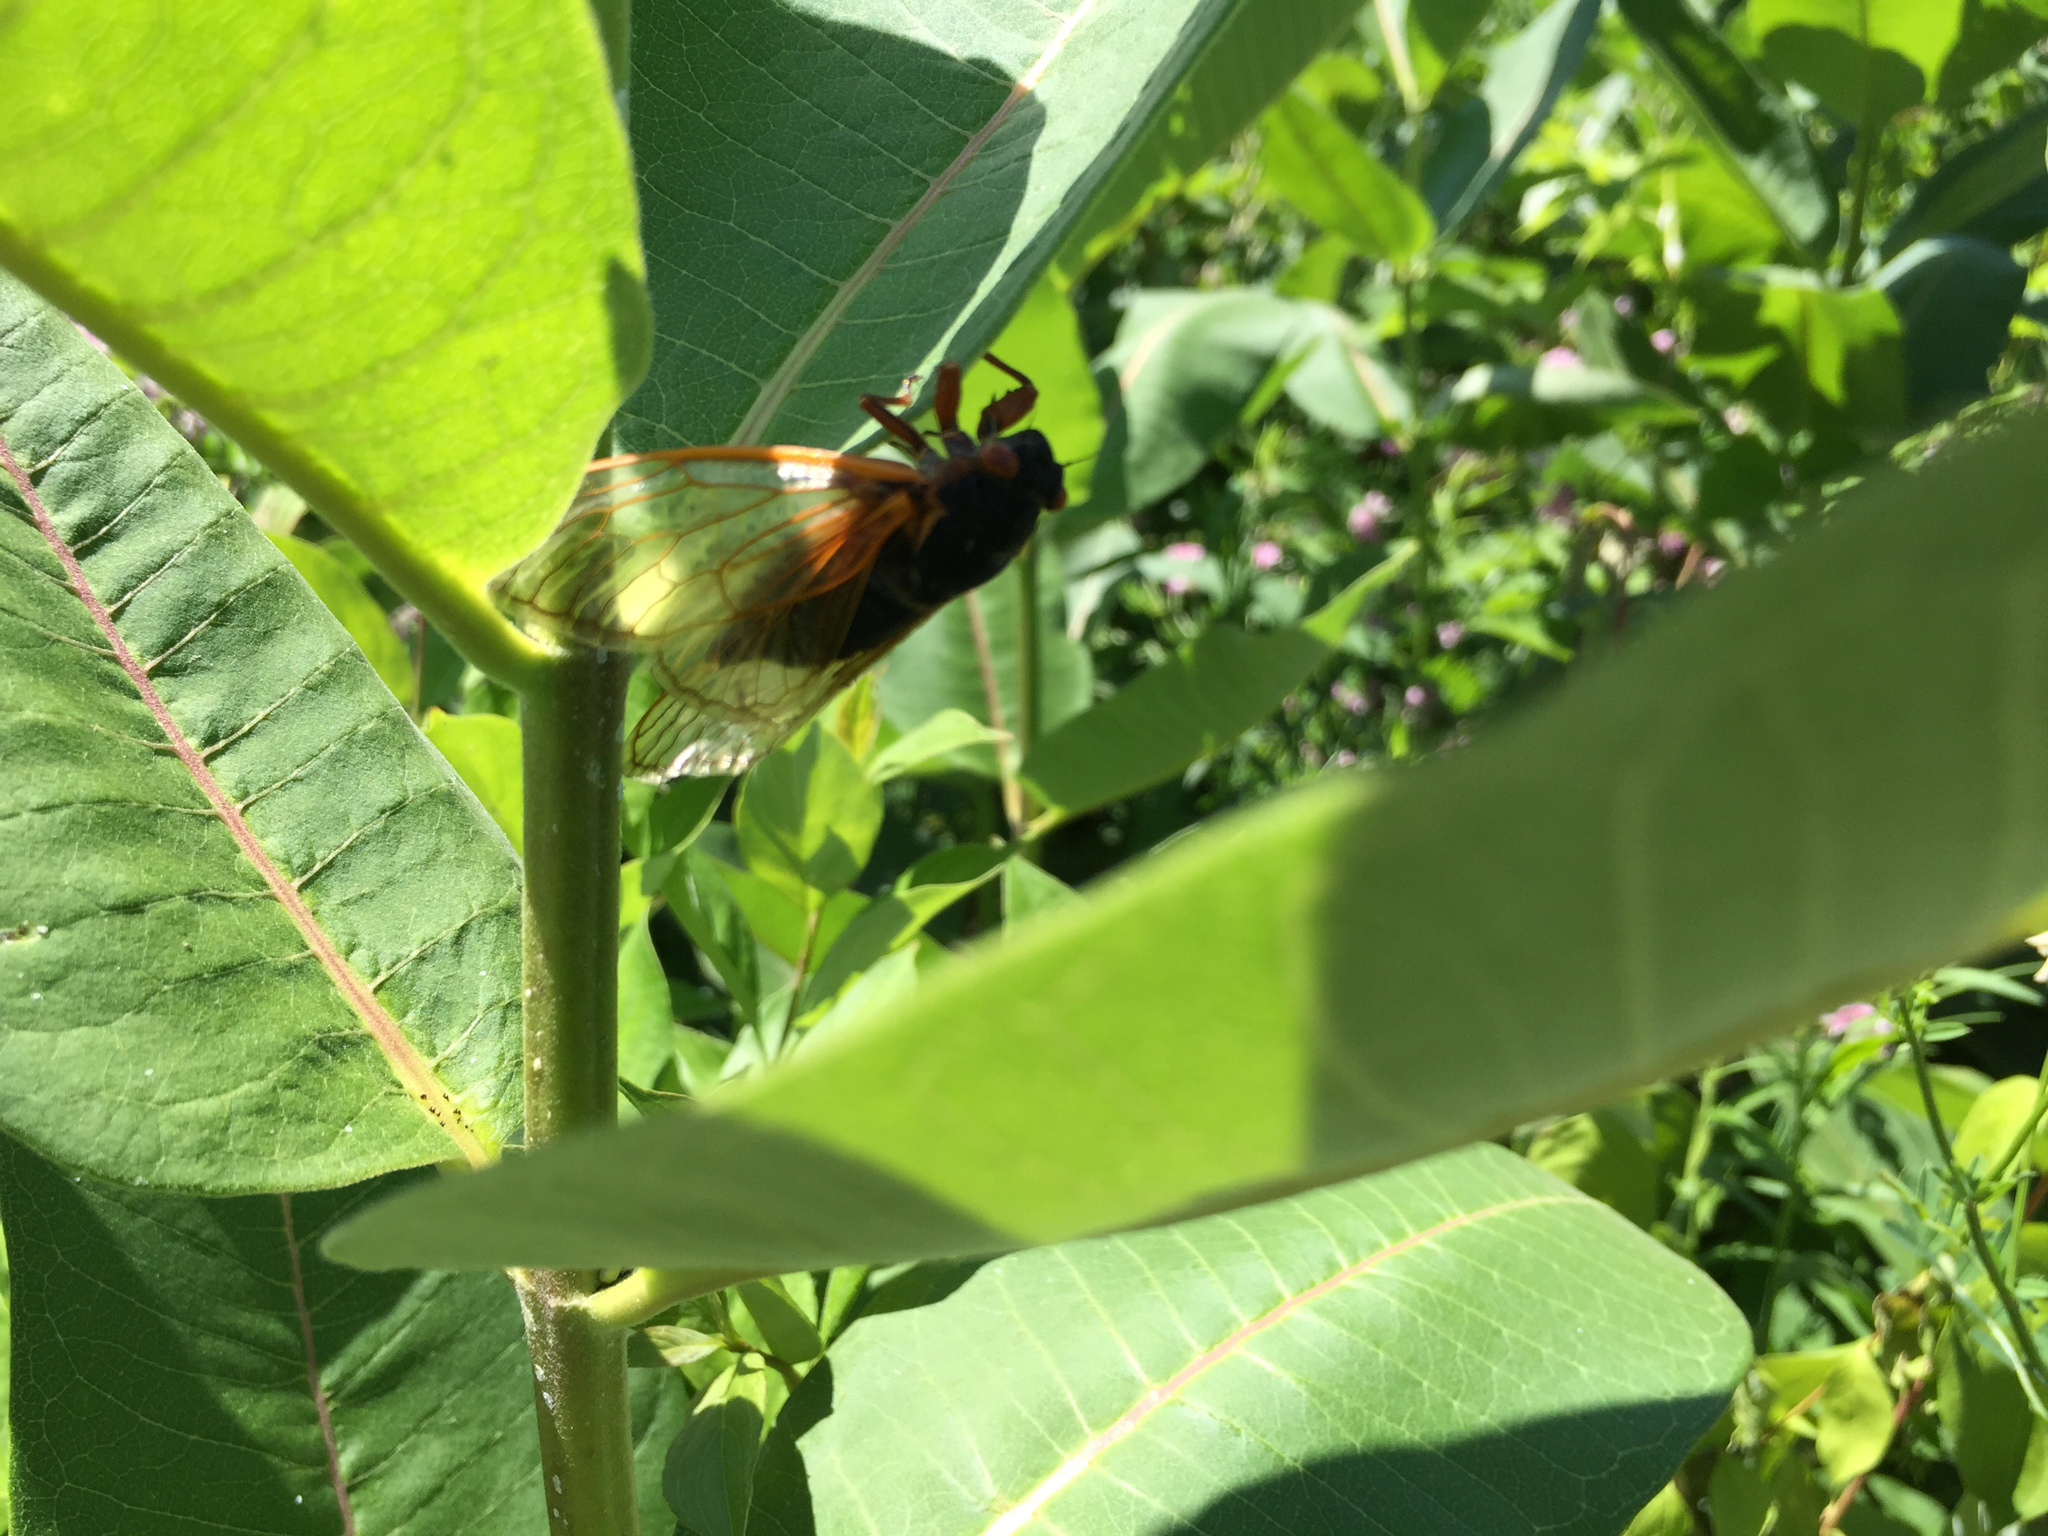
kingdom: Animalia
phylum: Arthropoda
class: Insecta
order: Hemiptera
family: Cicadidae
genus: Magicicada
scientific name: Magicicada septendecim
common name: Periodical cicada
